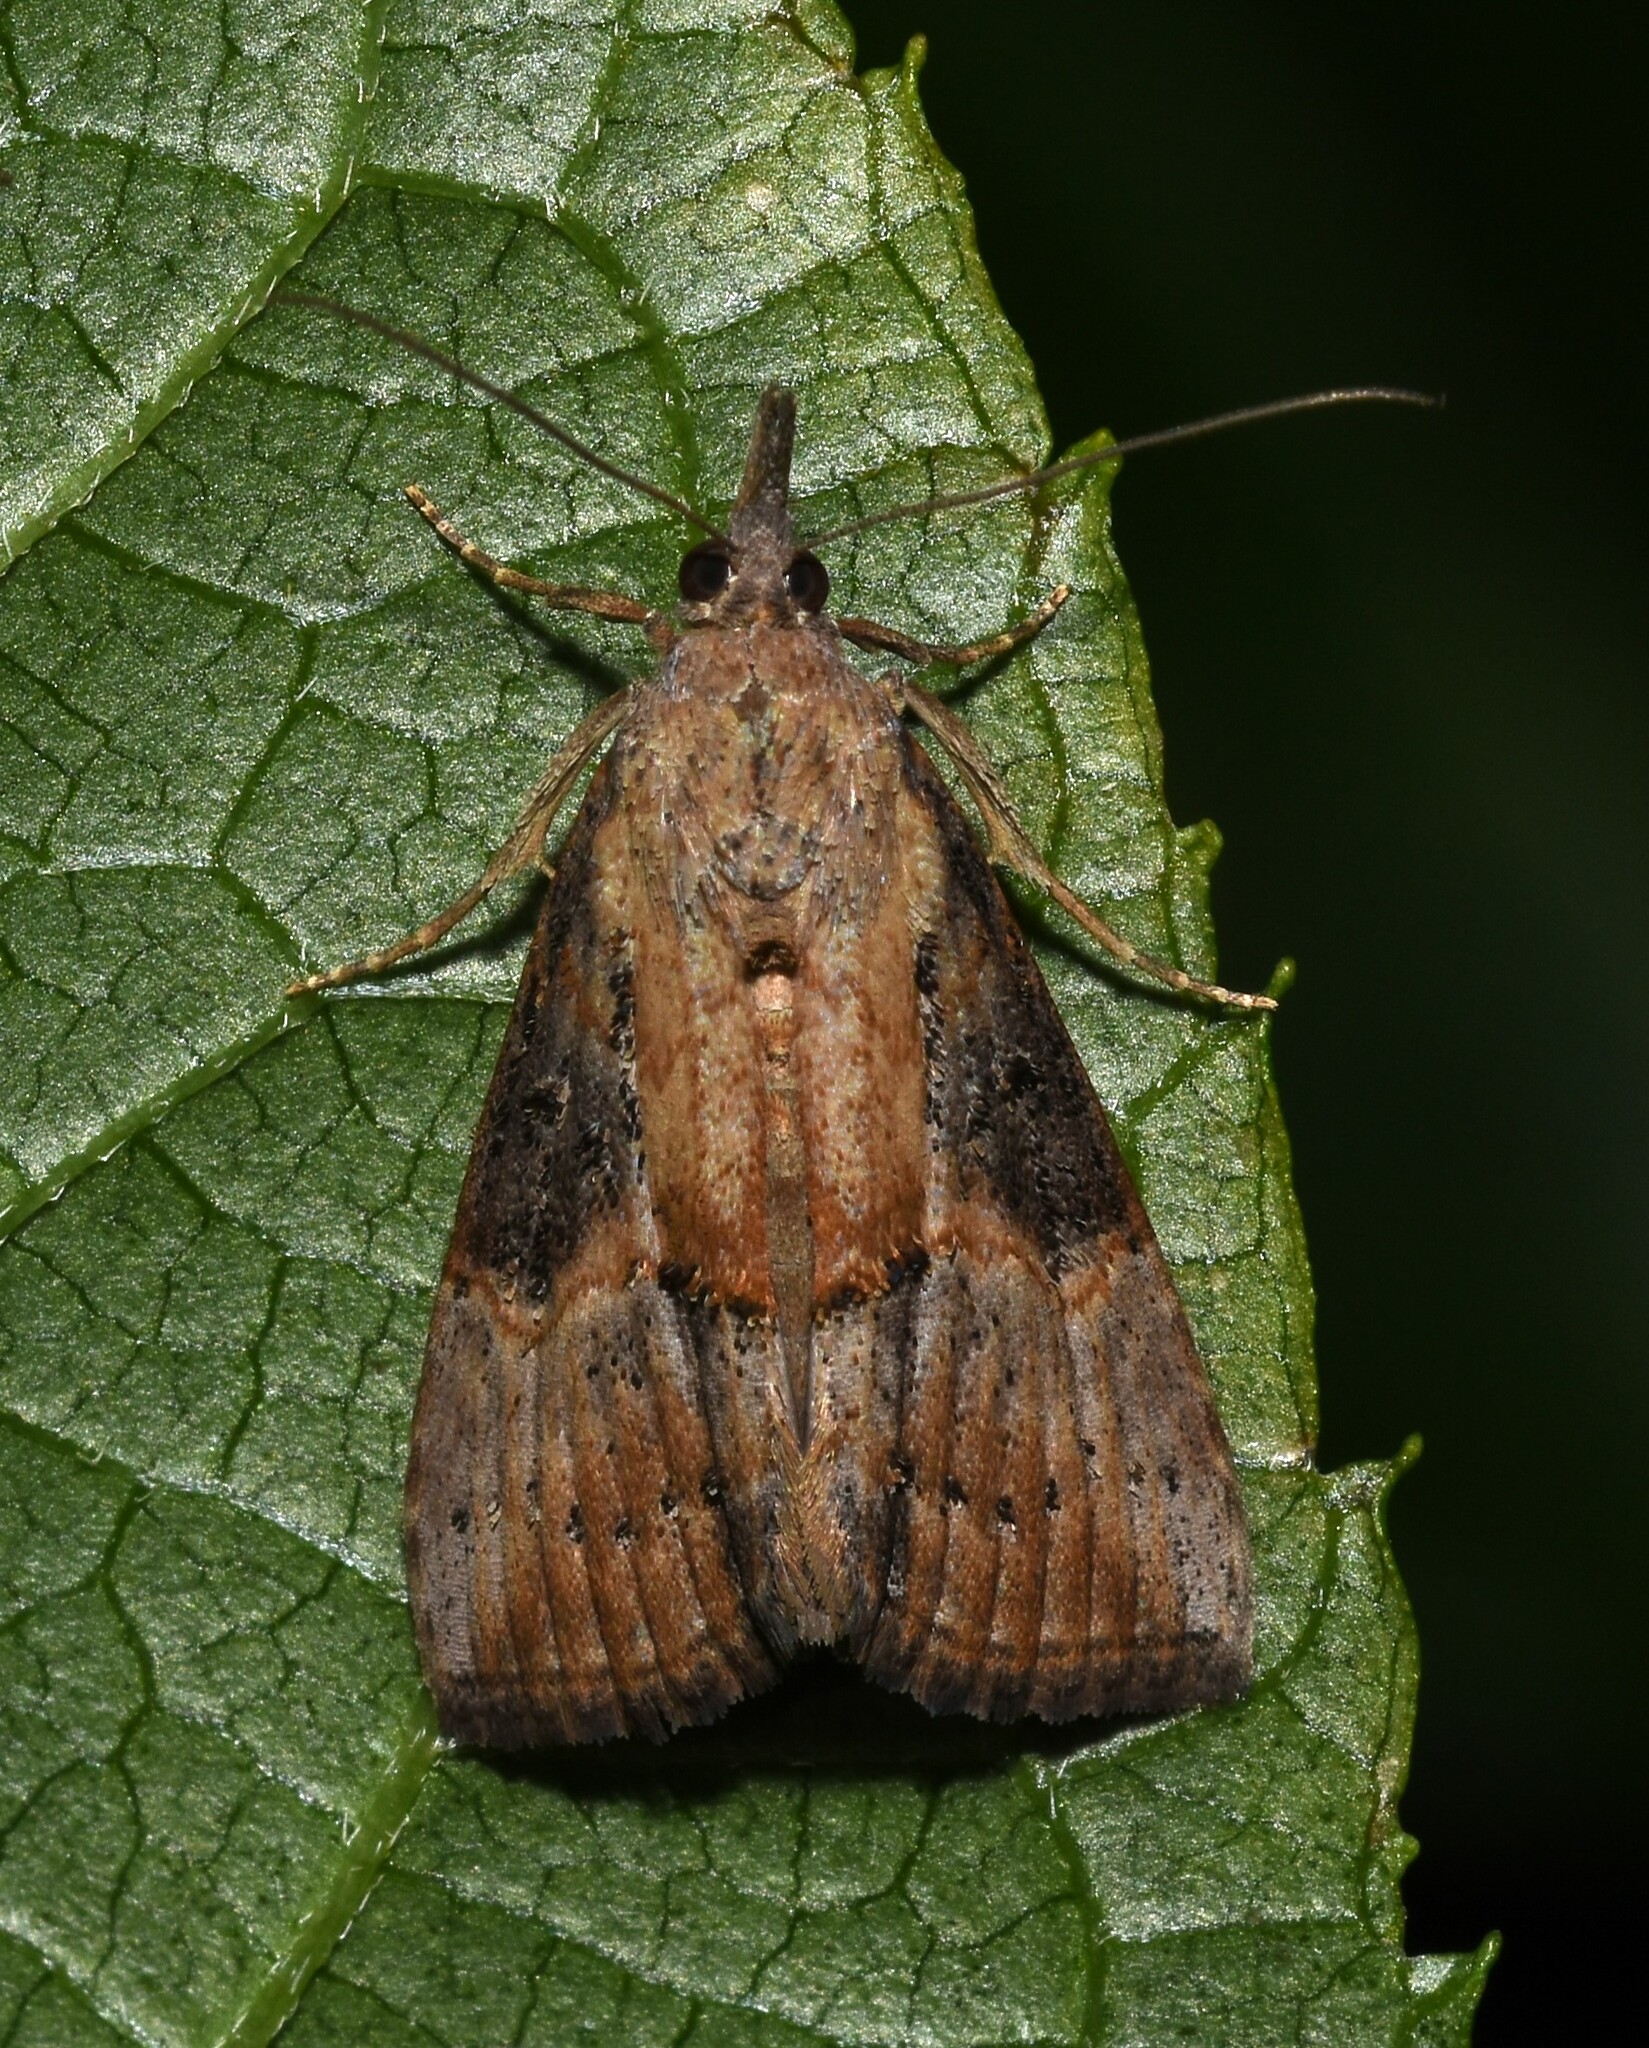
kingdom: Animalia
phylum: Arthropoda
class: Insecta
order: Lepidoptera
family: Erebidae
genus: Hypena
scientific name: Hypena scabra
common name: Green cloverworm
